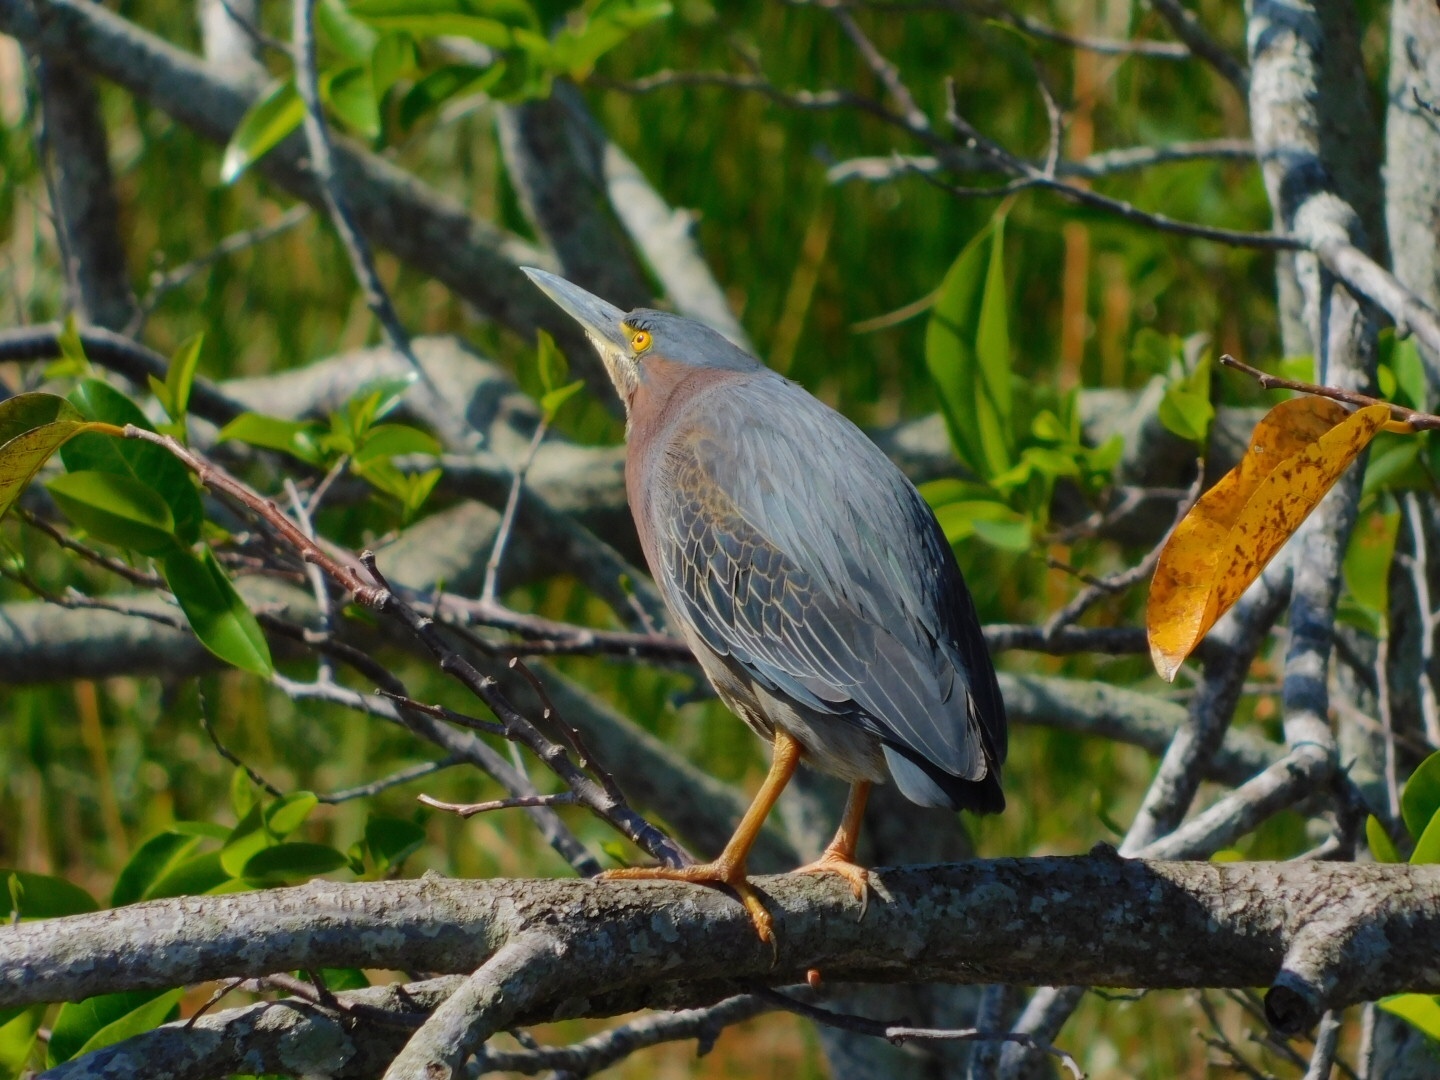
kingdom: Animalia
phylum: Chordata
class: Aves
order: Pelecaniformes
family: Ardeidae
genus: Butorides
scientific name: Butorides virescens
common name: Green heron
